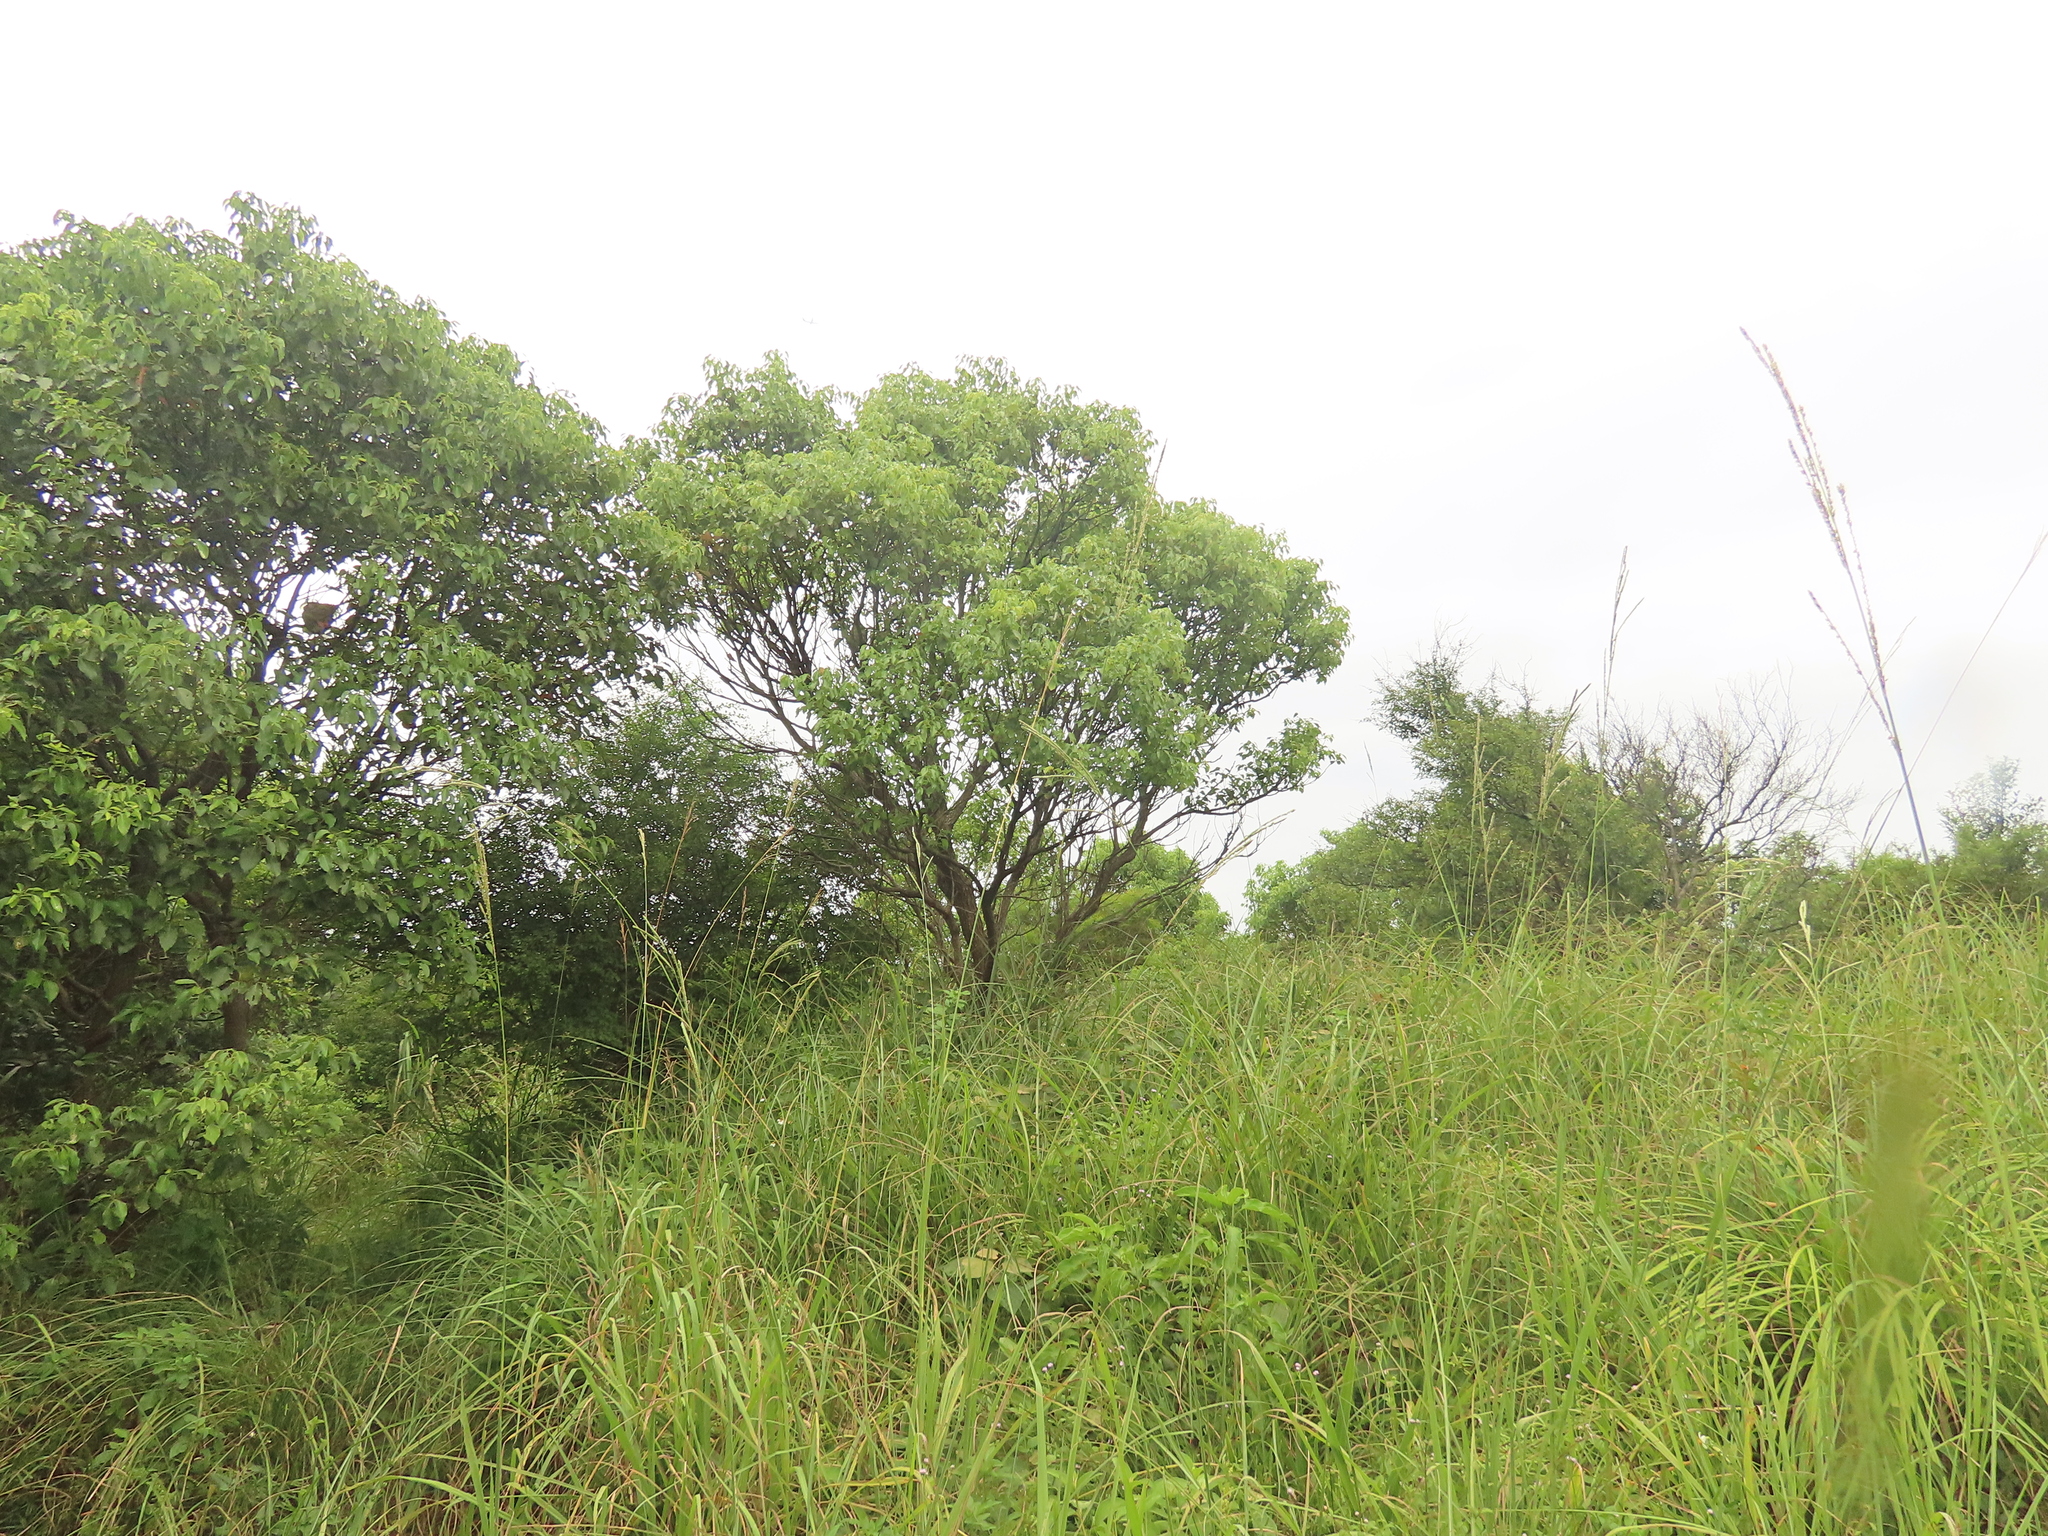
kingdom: Plantae
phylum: Tracheophyta
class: Magnoliopsida
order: Laurales
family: Lauraceae
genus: Cinnamomum
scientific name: Cinnamomum camphora
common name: Camphortree
